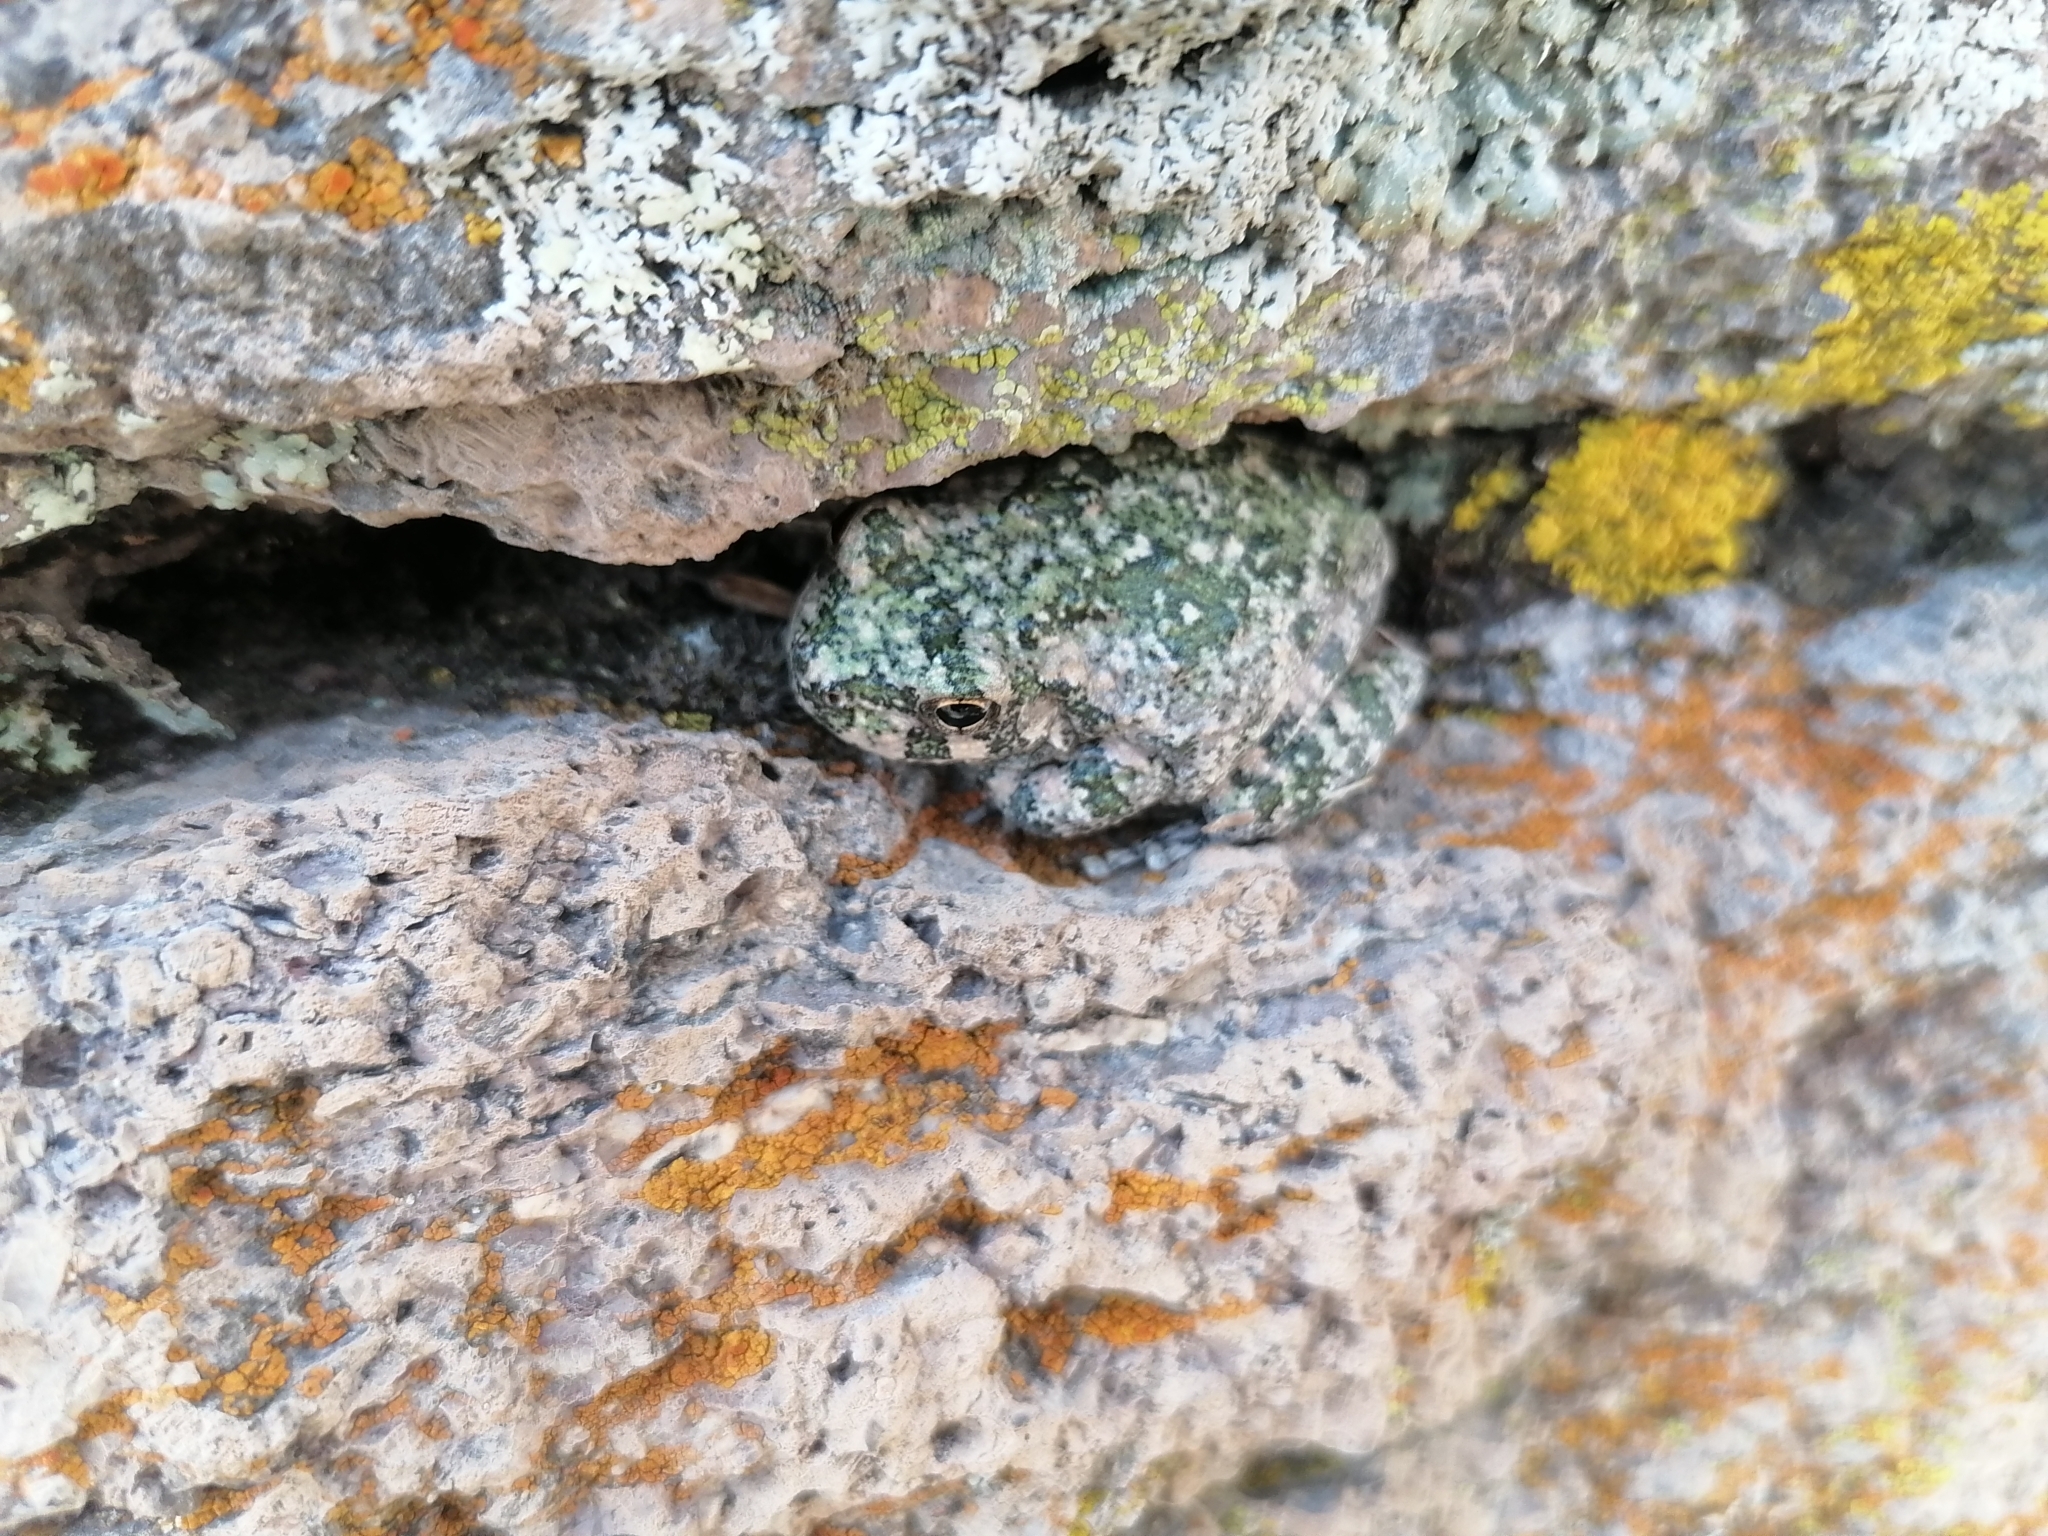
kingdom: Animalia
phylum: Chordata
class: Amphibia
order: Anura
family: Hylidae
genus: Dryophytes
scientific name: Dryophytes arenicolor
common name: Canyon treefrog
